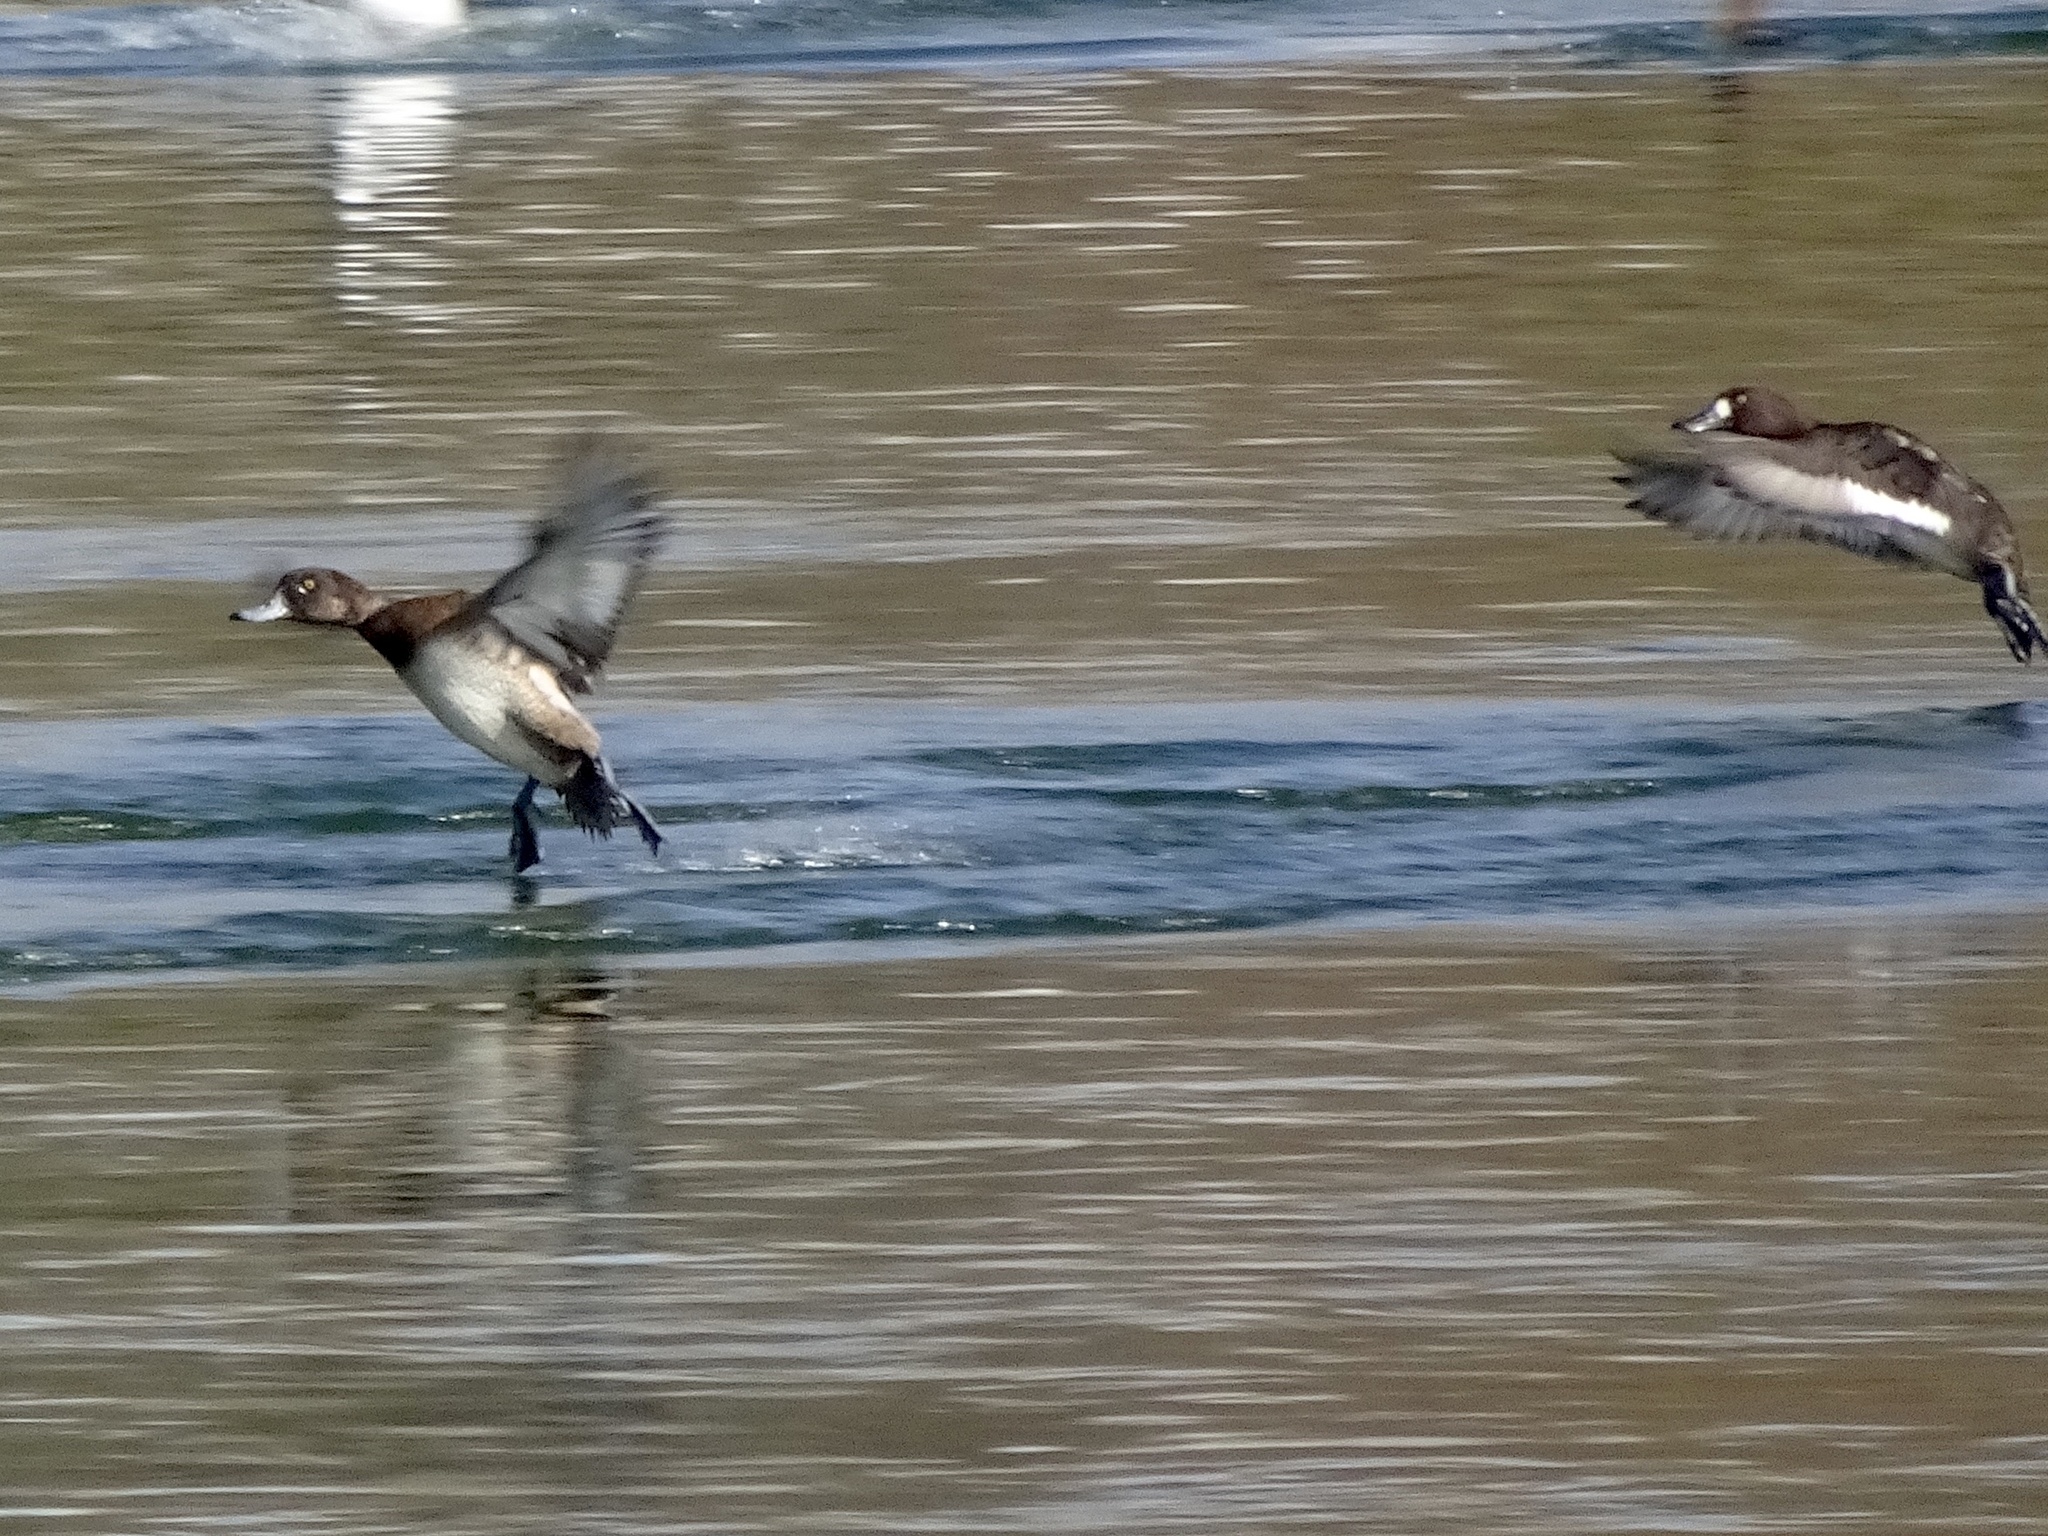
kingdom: Animalia
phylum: Chordata
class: Aves
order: Anseriformes
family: Anatidae
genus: Aythya
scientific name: Aythya marila
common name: Greater scaup
